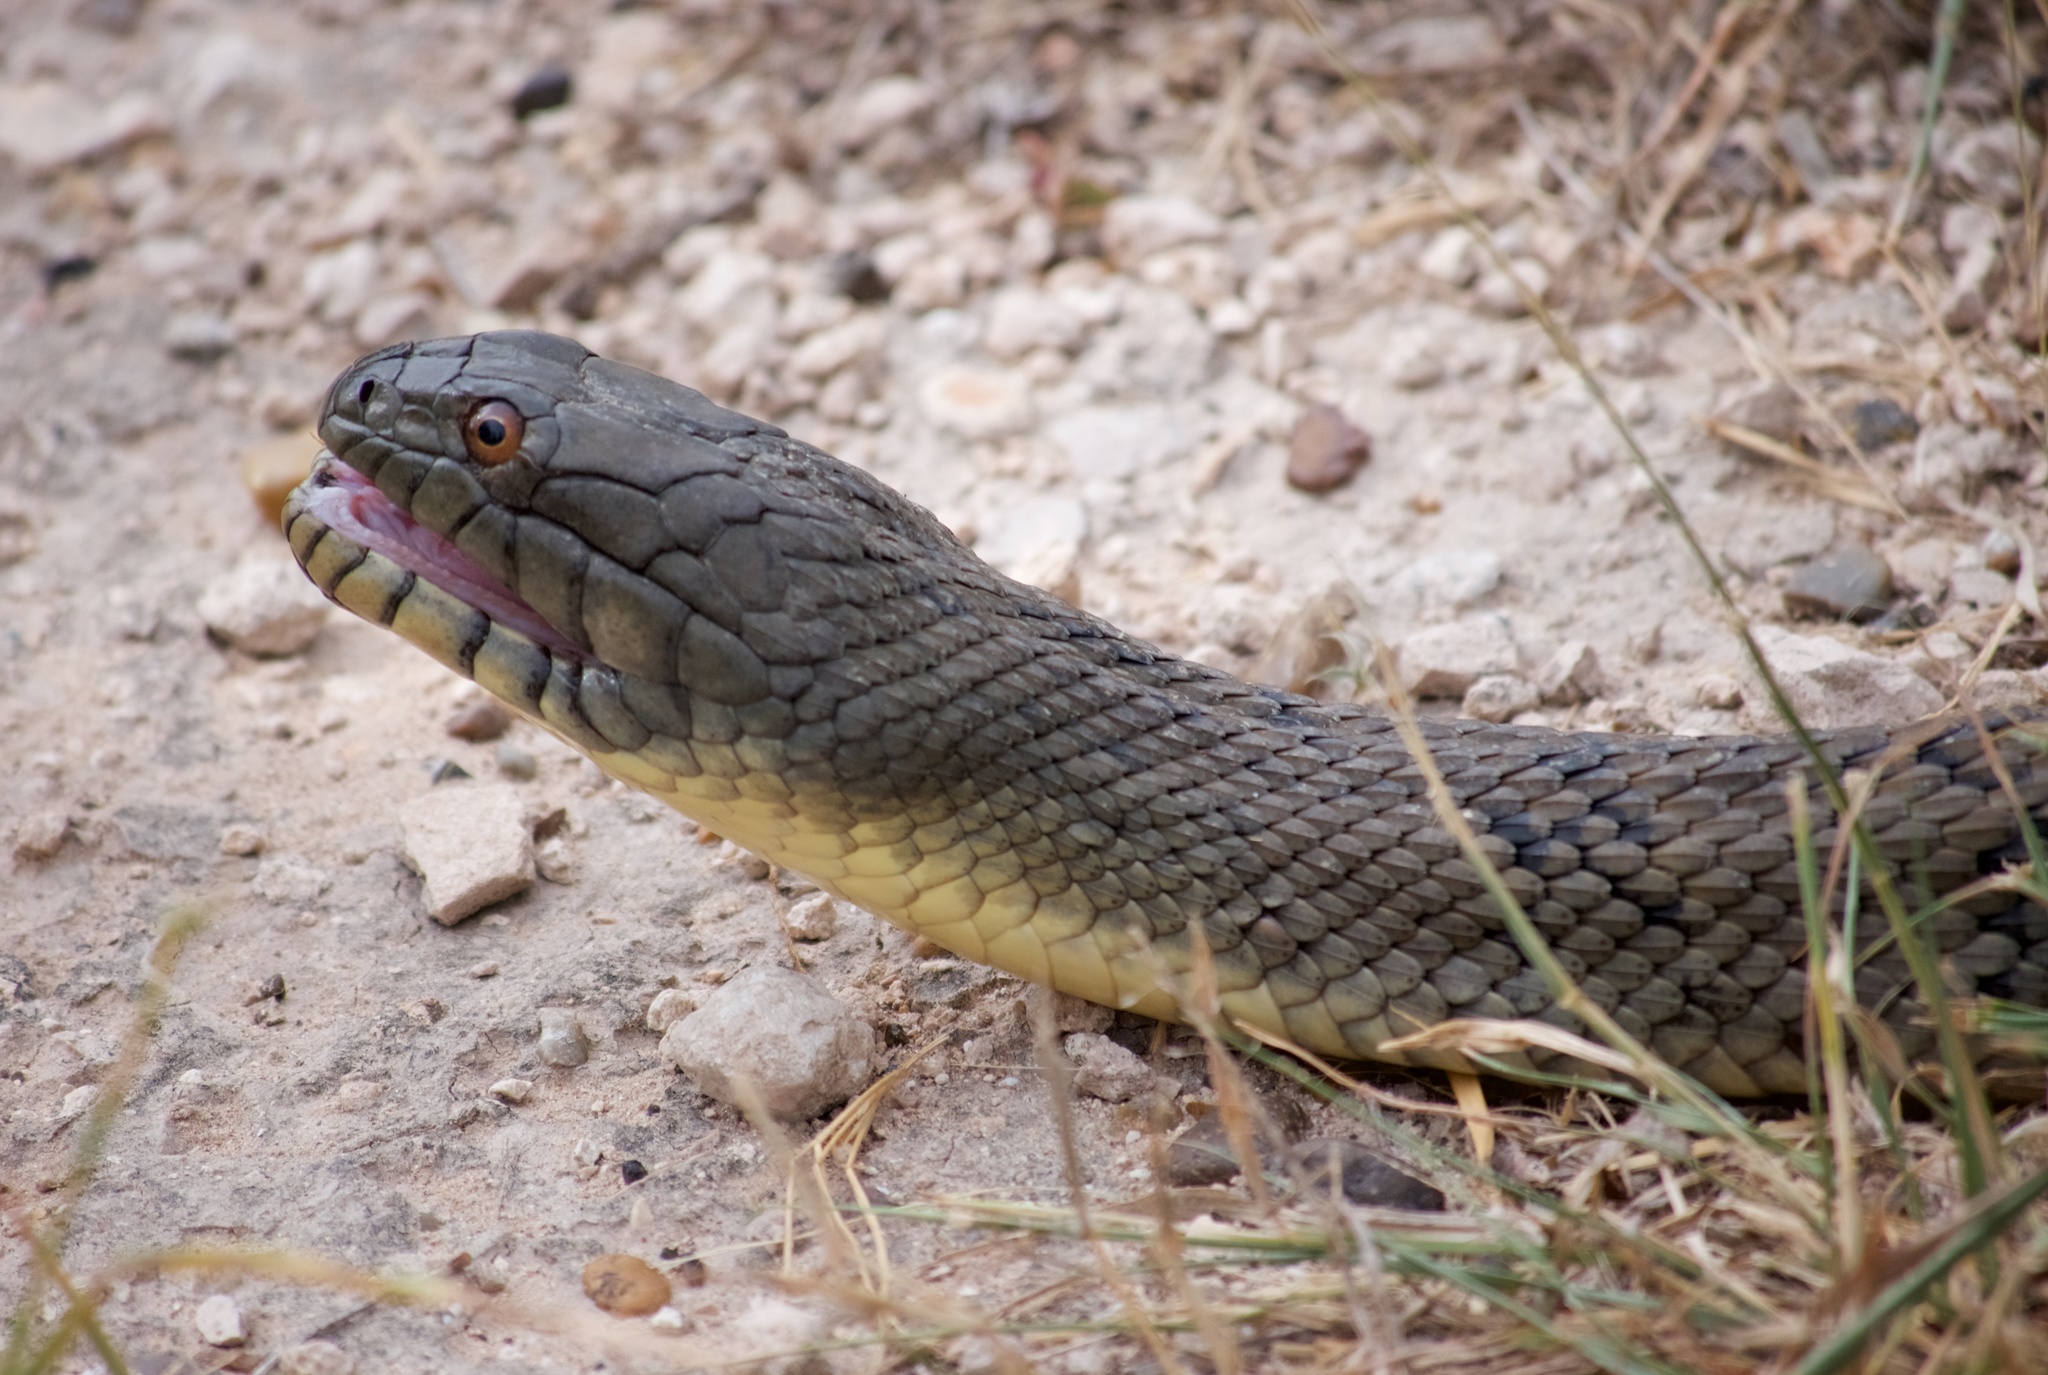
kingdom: Animalia
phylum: Chordata
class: Squamata
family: Colubridae
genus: Nerodia
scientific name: Nerodia rhombifer
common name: Diamondback water snake
